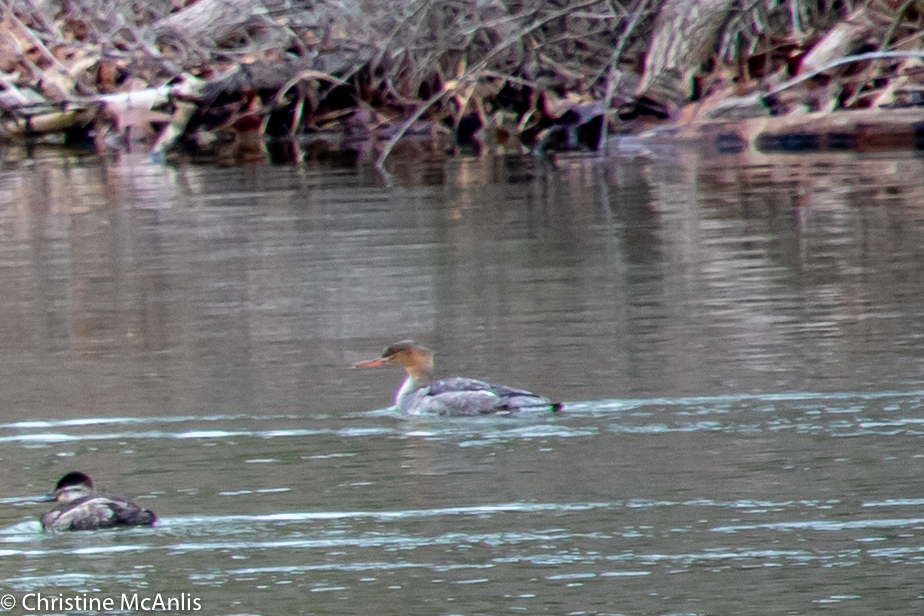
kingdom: Animalia
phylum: Chordata
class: Aves
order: Anseriformes
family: Anatidae
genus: Mergus
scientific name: Mergus serrator
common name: Red-breasted merganser
